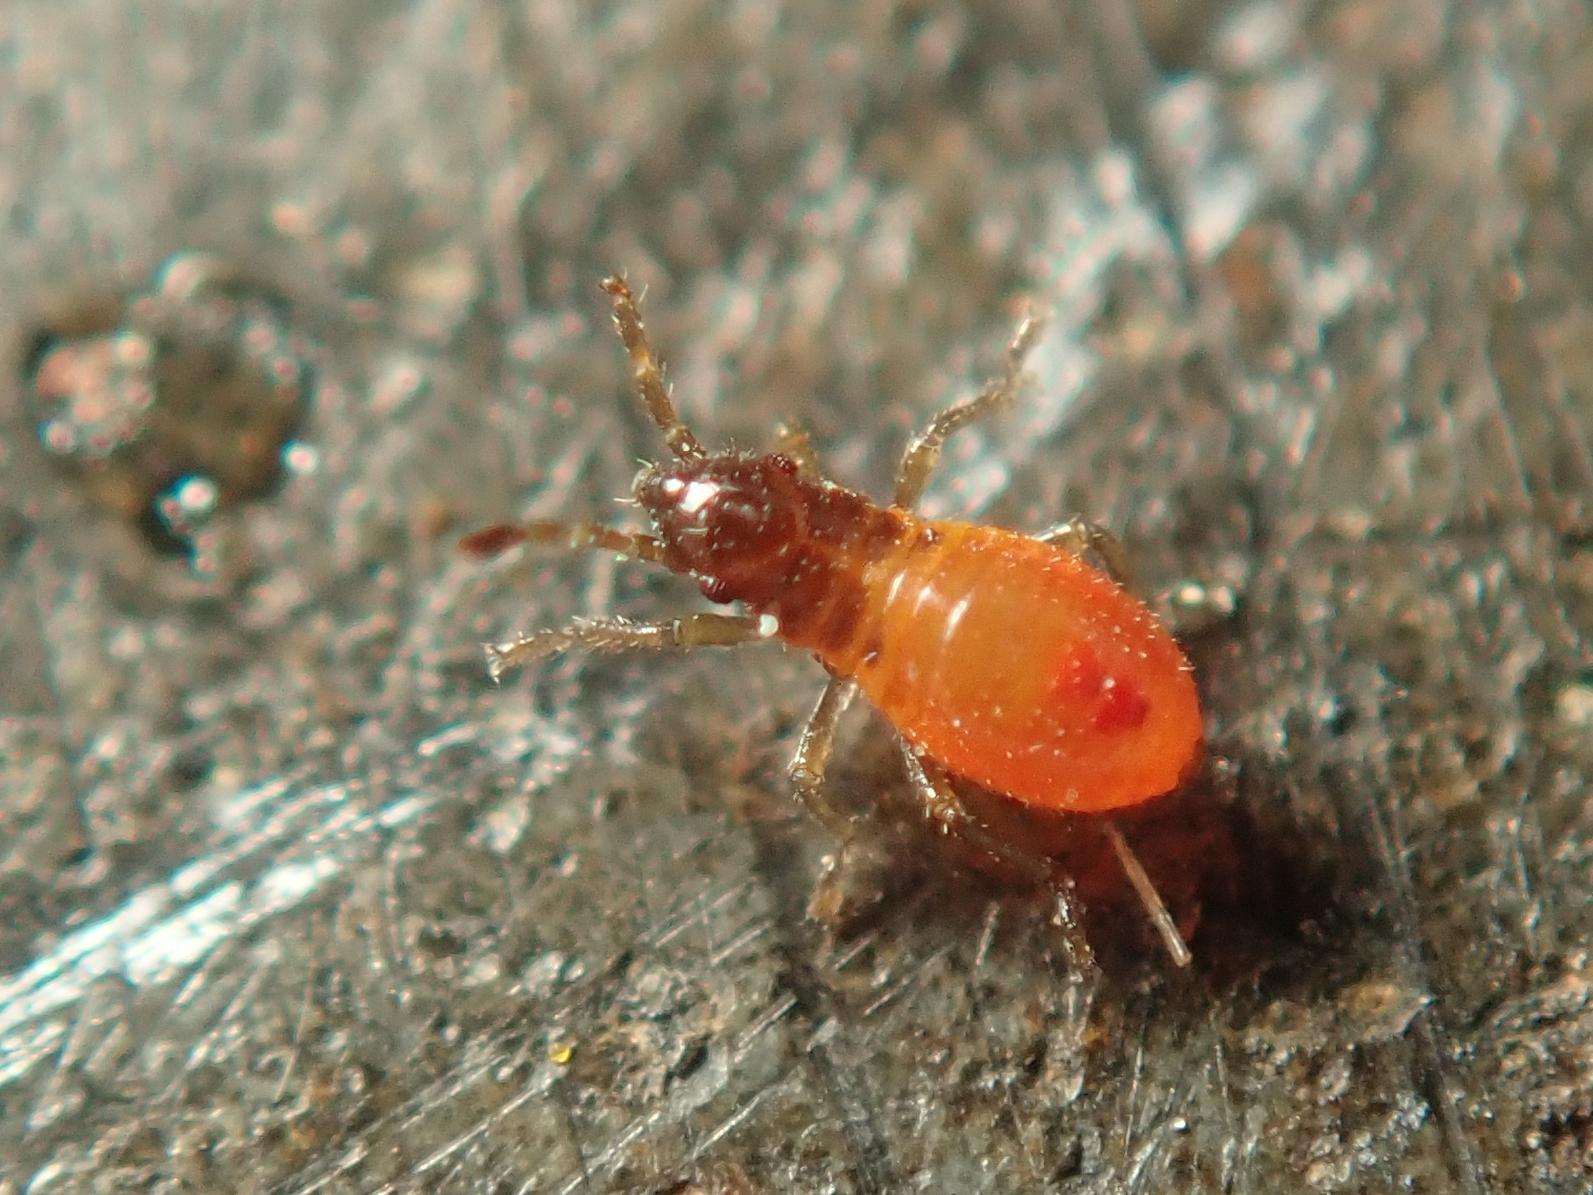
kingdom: Animalia
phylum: Arthropoda
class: Insecta
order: Hemiptera
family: Oxycarenidae
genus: Oxycarenus
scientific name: Oxycarenus lavaterae
